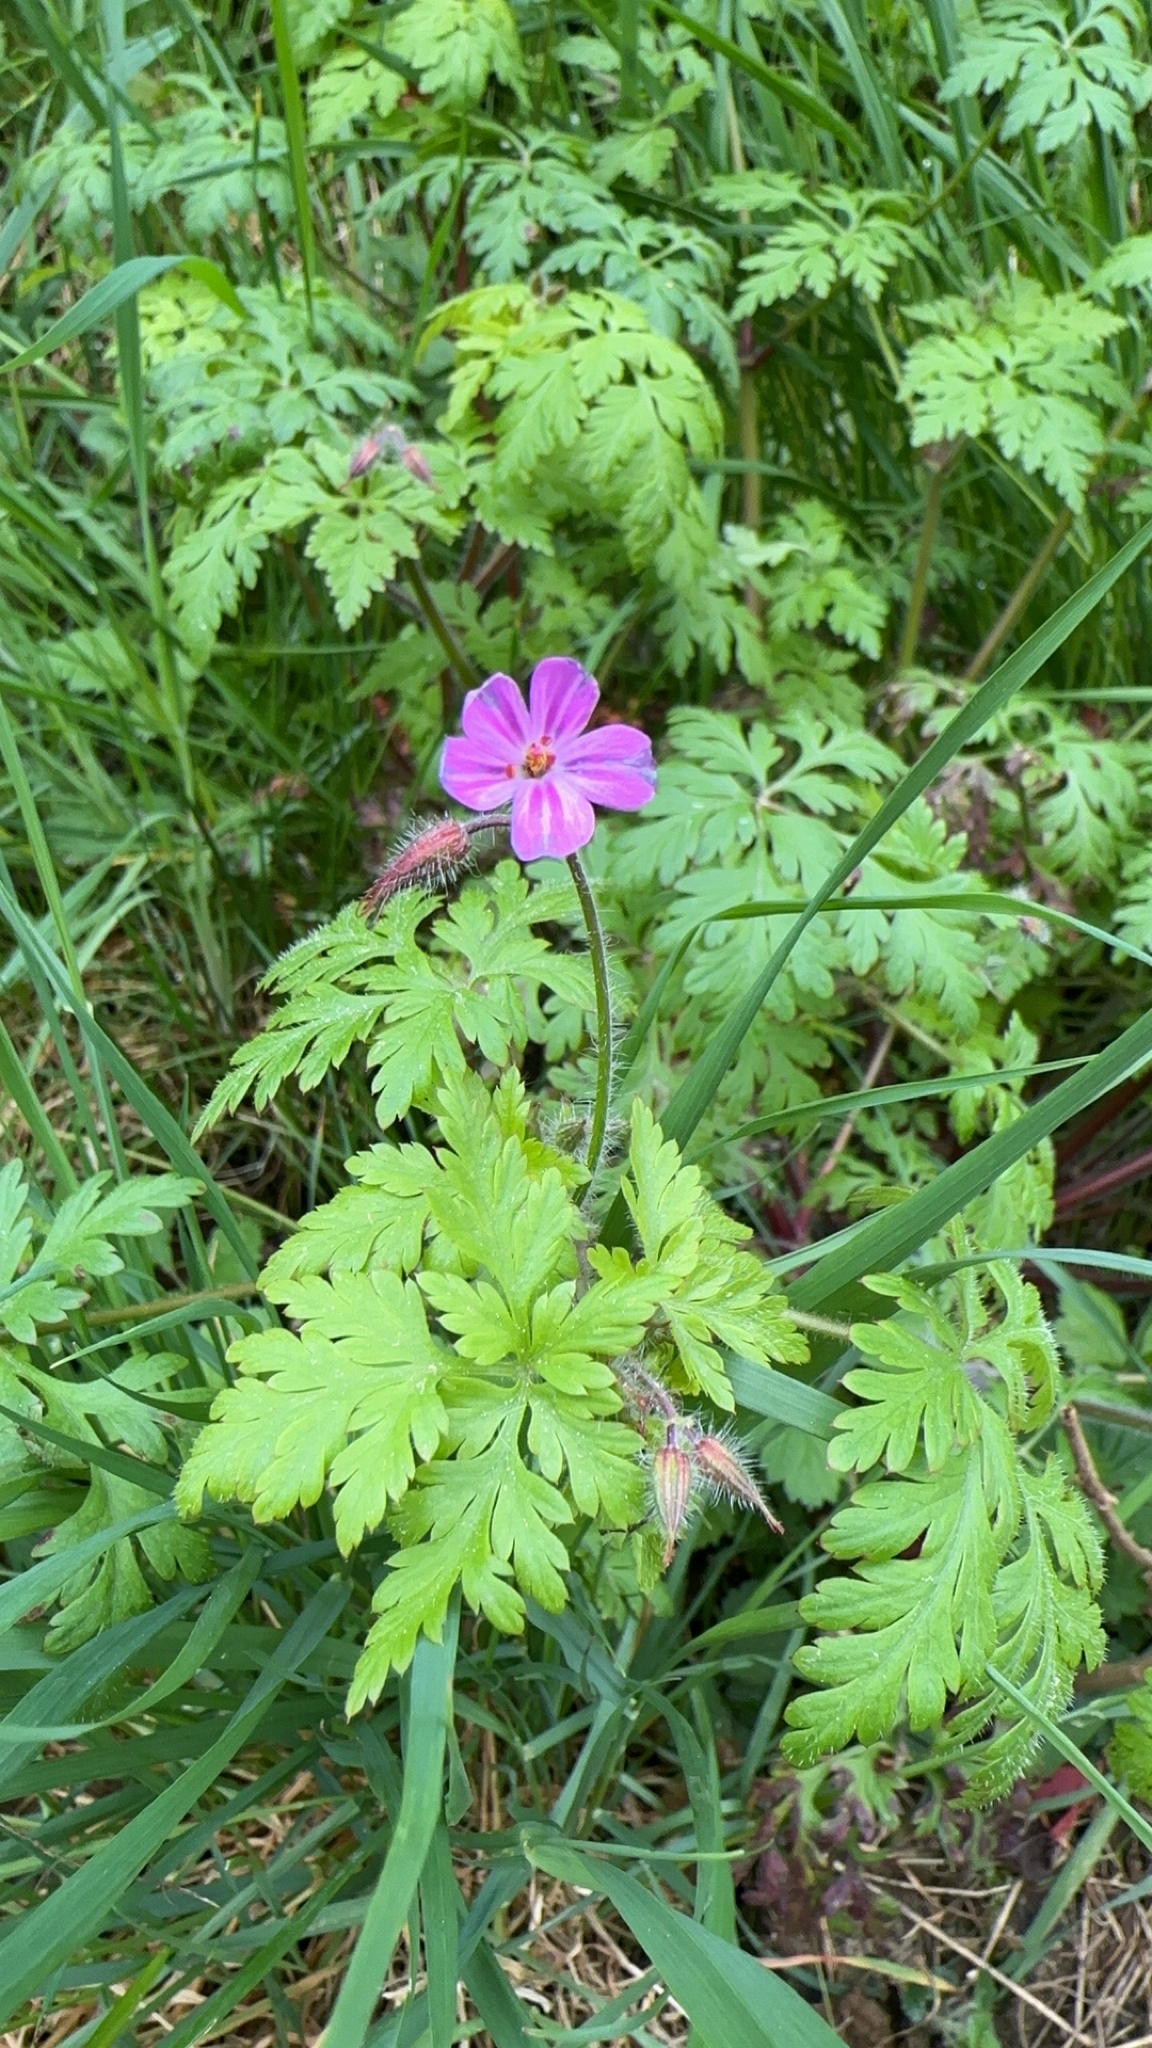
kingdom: Plantae
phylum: Tracheophyta
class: Magnoliopsida
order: Geraniales
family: Geraniaceae
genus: Geranium
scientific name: Geranium robertianum
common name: Herb-robert
